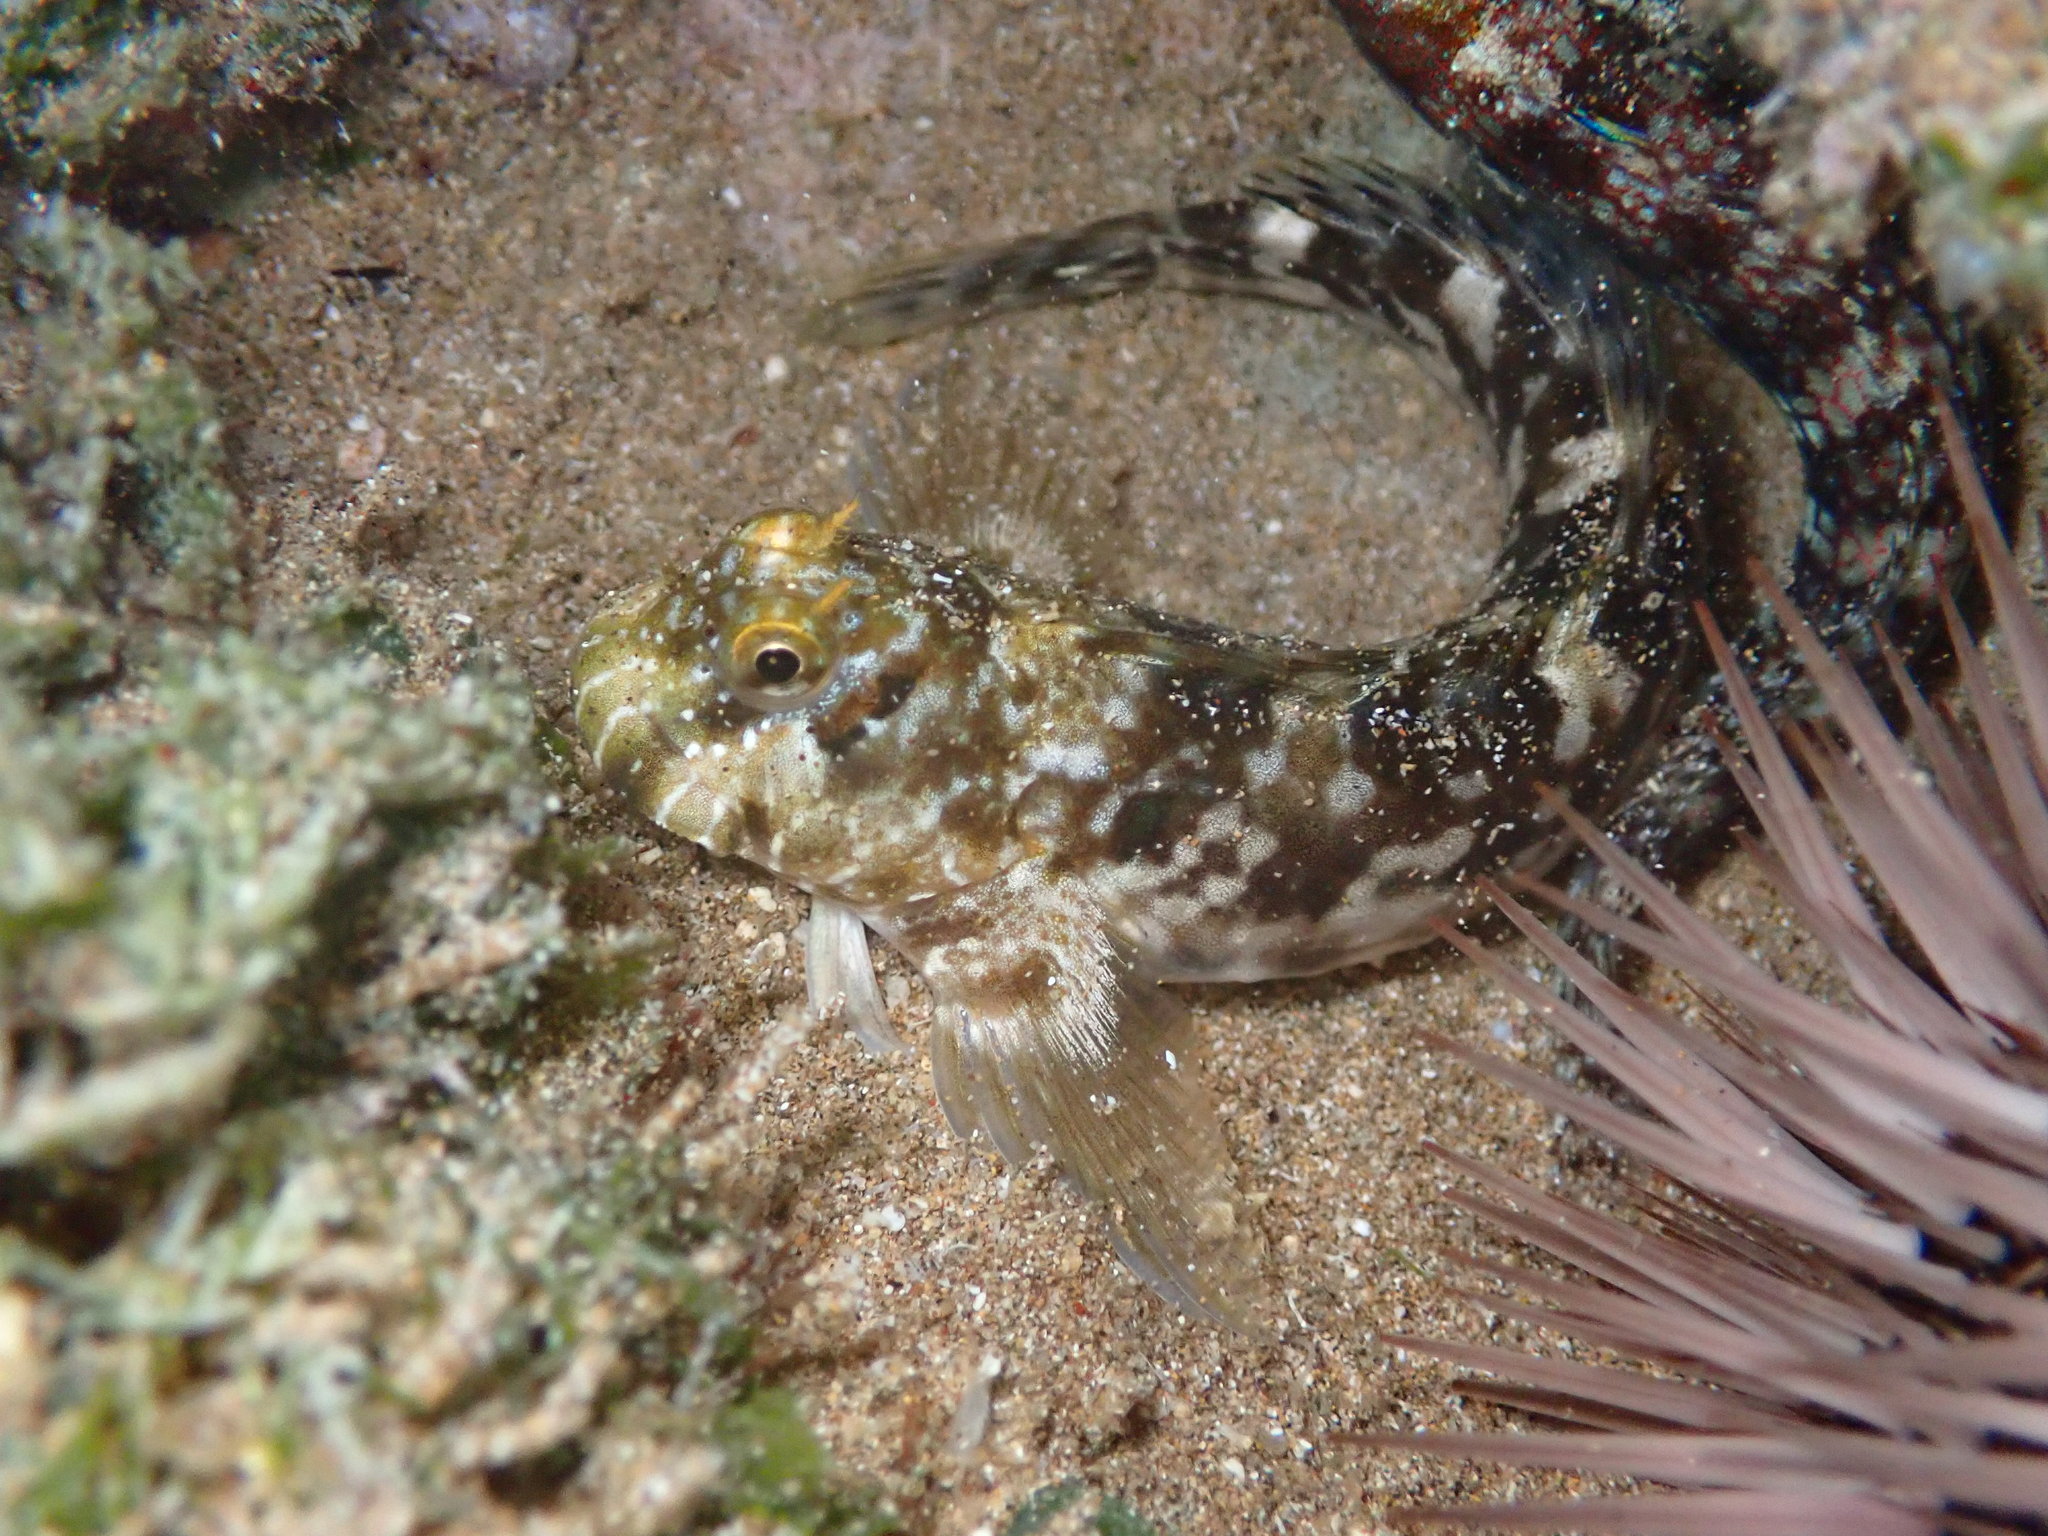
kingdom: Animalia
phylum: Chordata
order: Perciformes
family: Blenniidae
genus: Entomacrodus
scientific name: Entomacrodus marmoratus
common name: Marbled blenny
